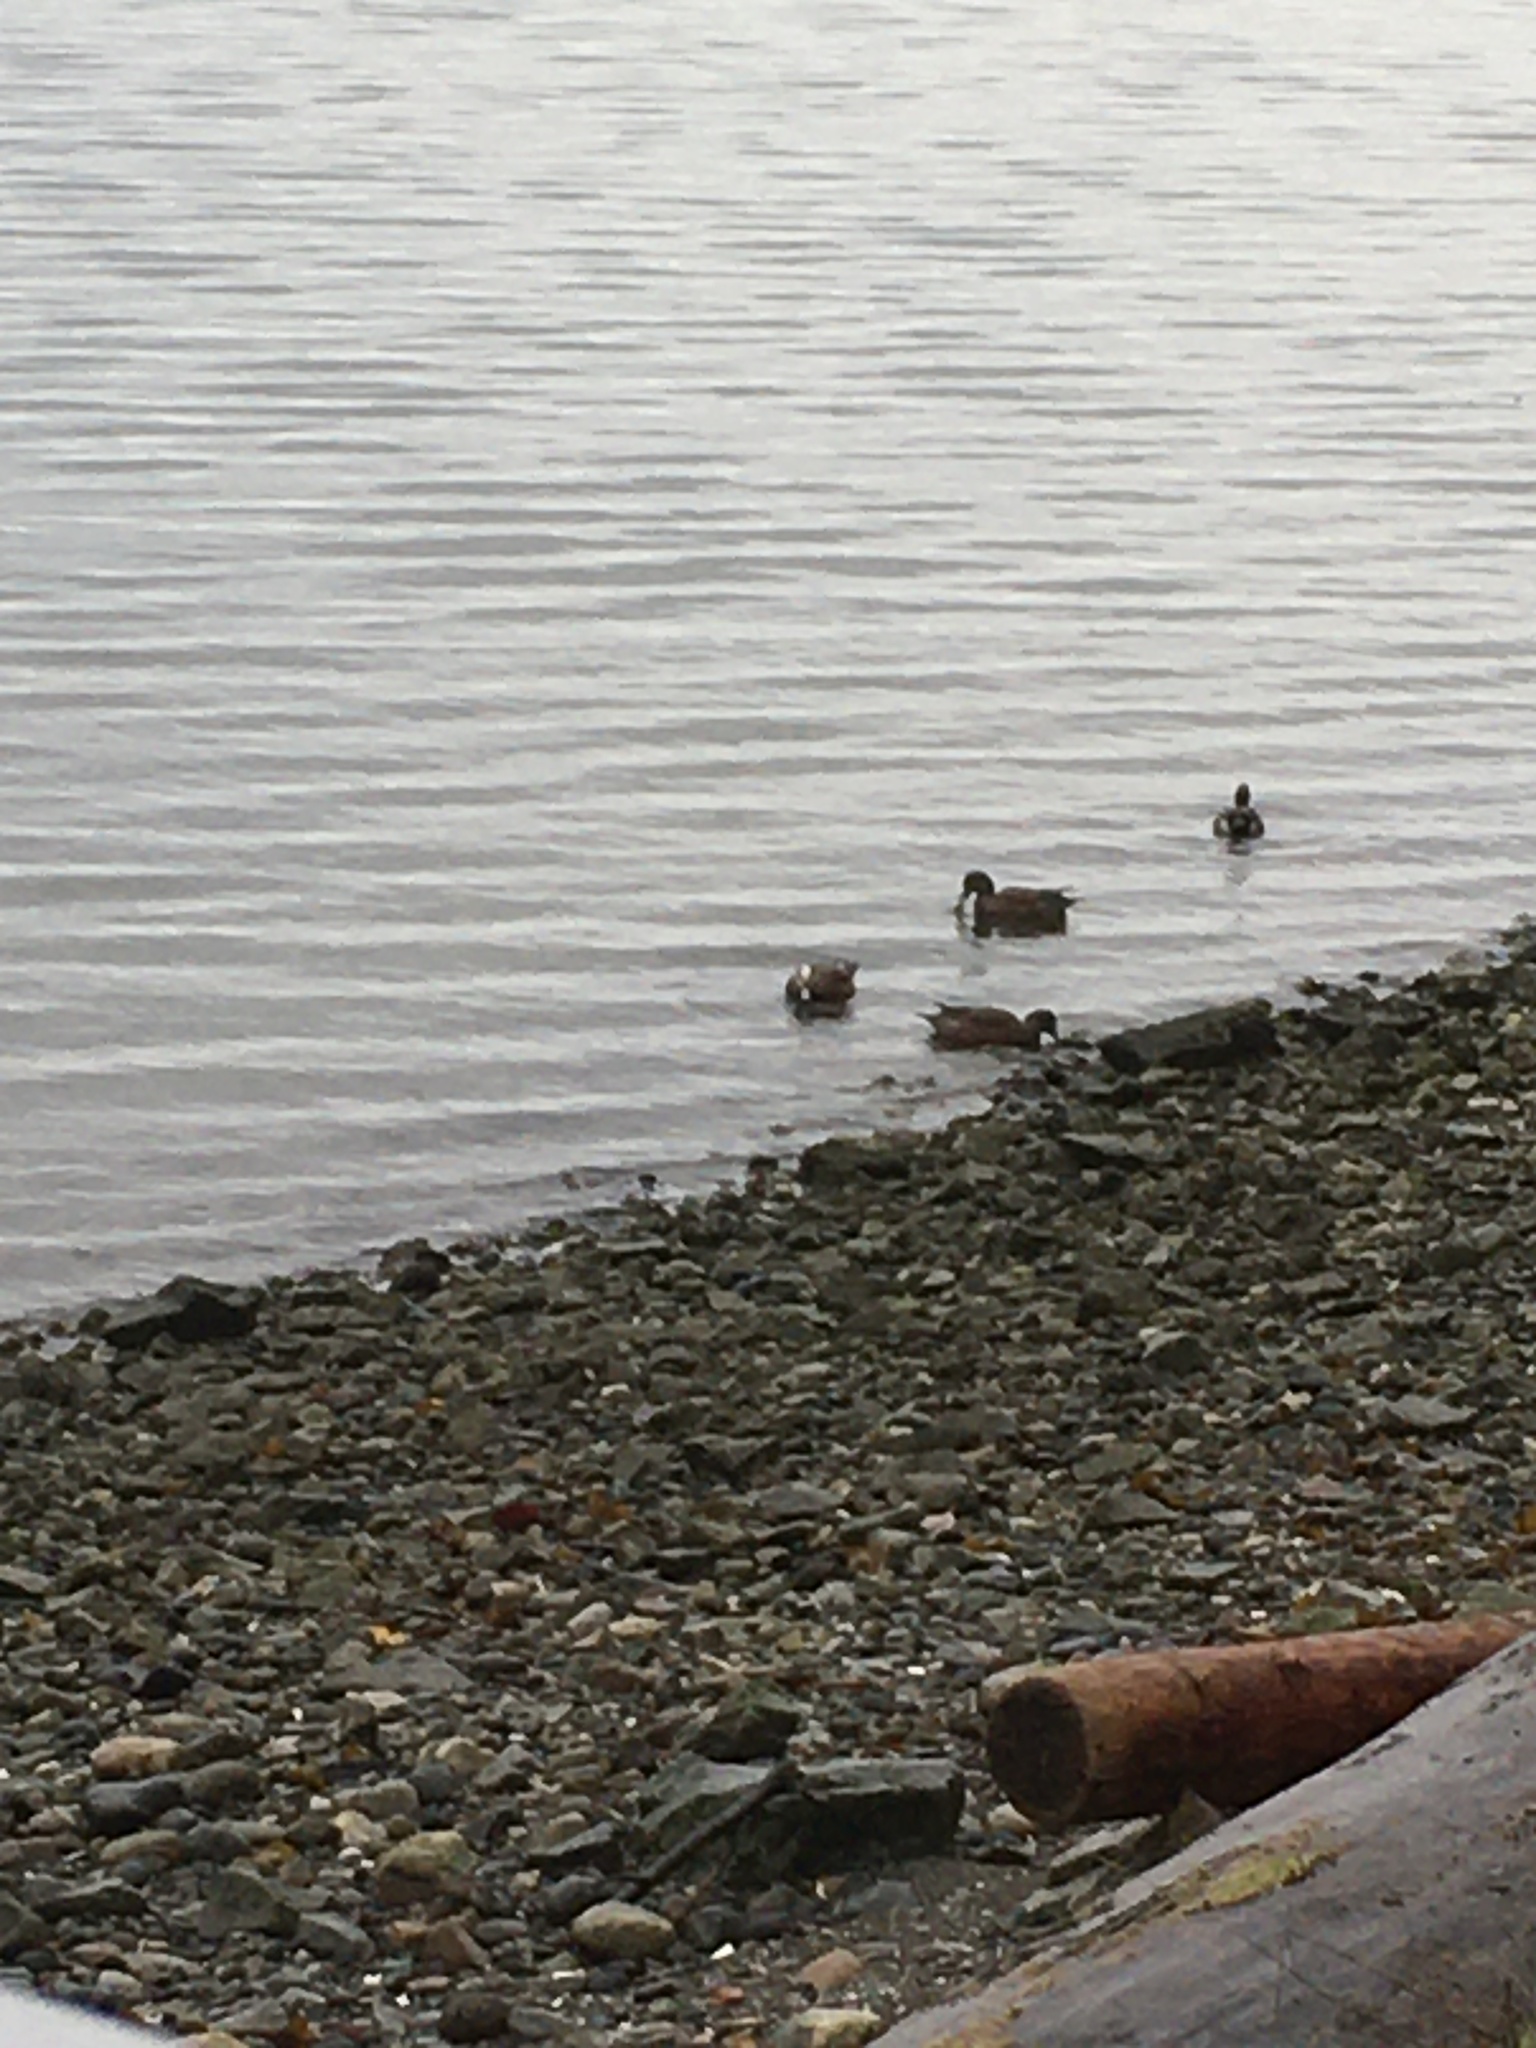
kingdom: Animalia
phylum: Chordata
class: Aves
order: Anseriformes
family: Anatidae
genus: Mareca
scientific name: Mareca americana
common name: American wigeon
